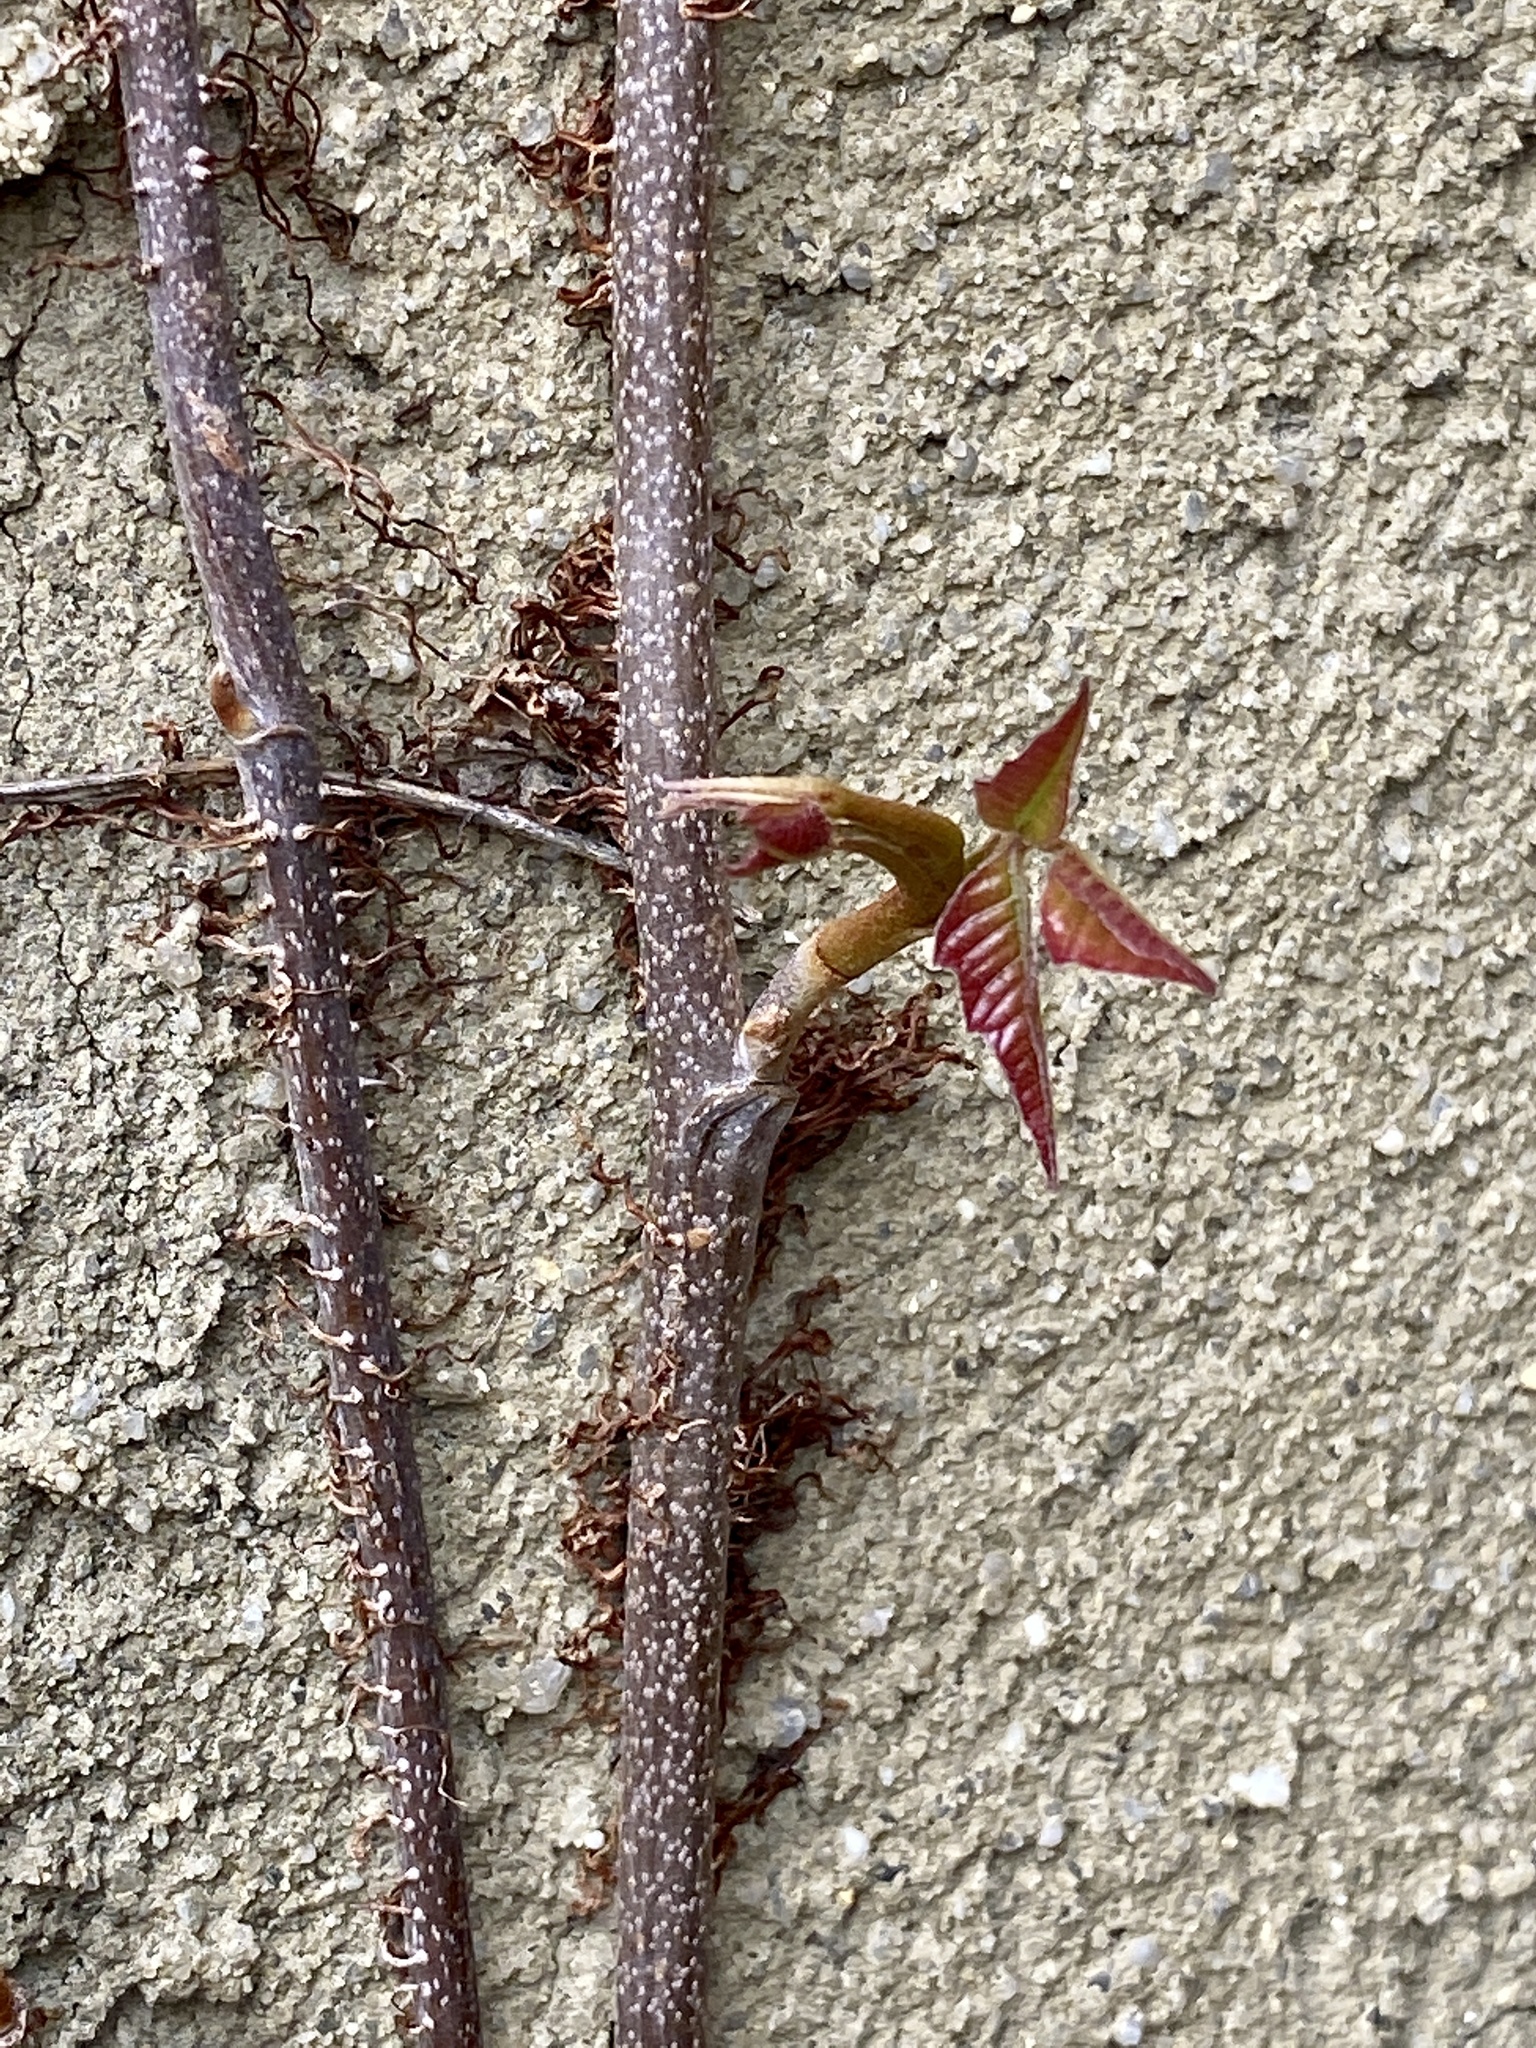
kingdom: Plantae
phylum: Tracheophyta
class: Magnoliopsida
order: Sapindales
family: Anacardiaceae
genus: Toxicodendron
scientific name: Toxicodendron radicans
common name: Poison ivy
